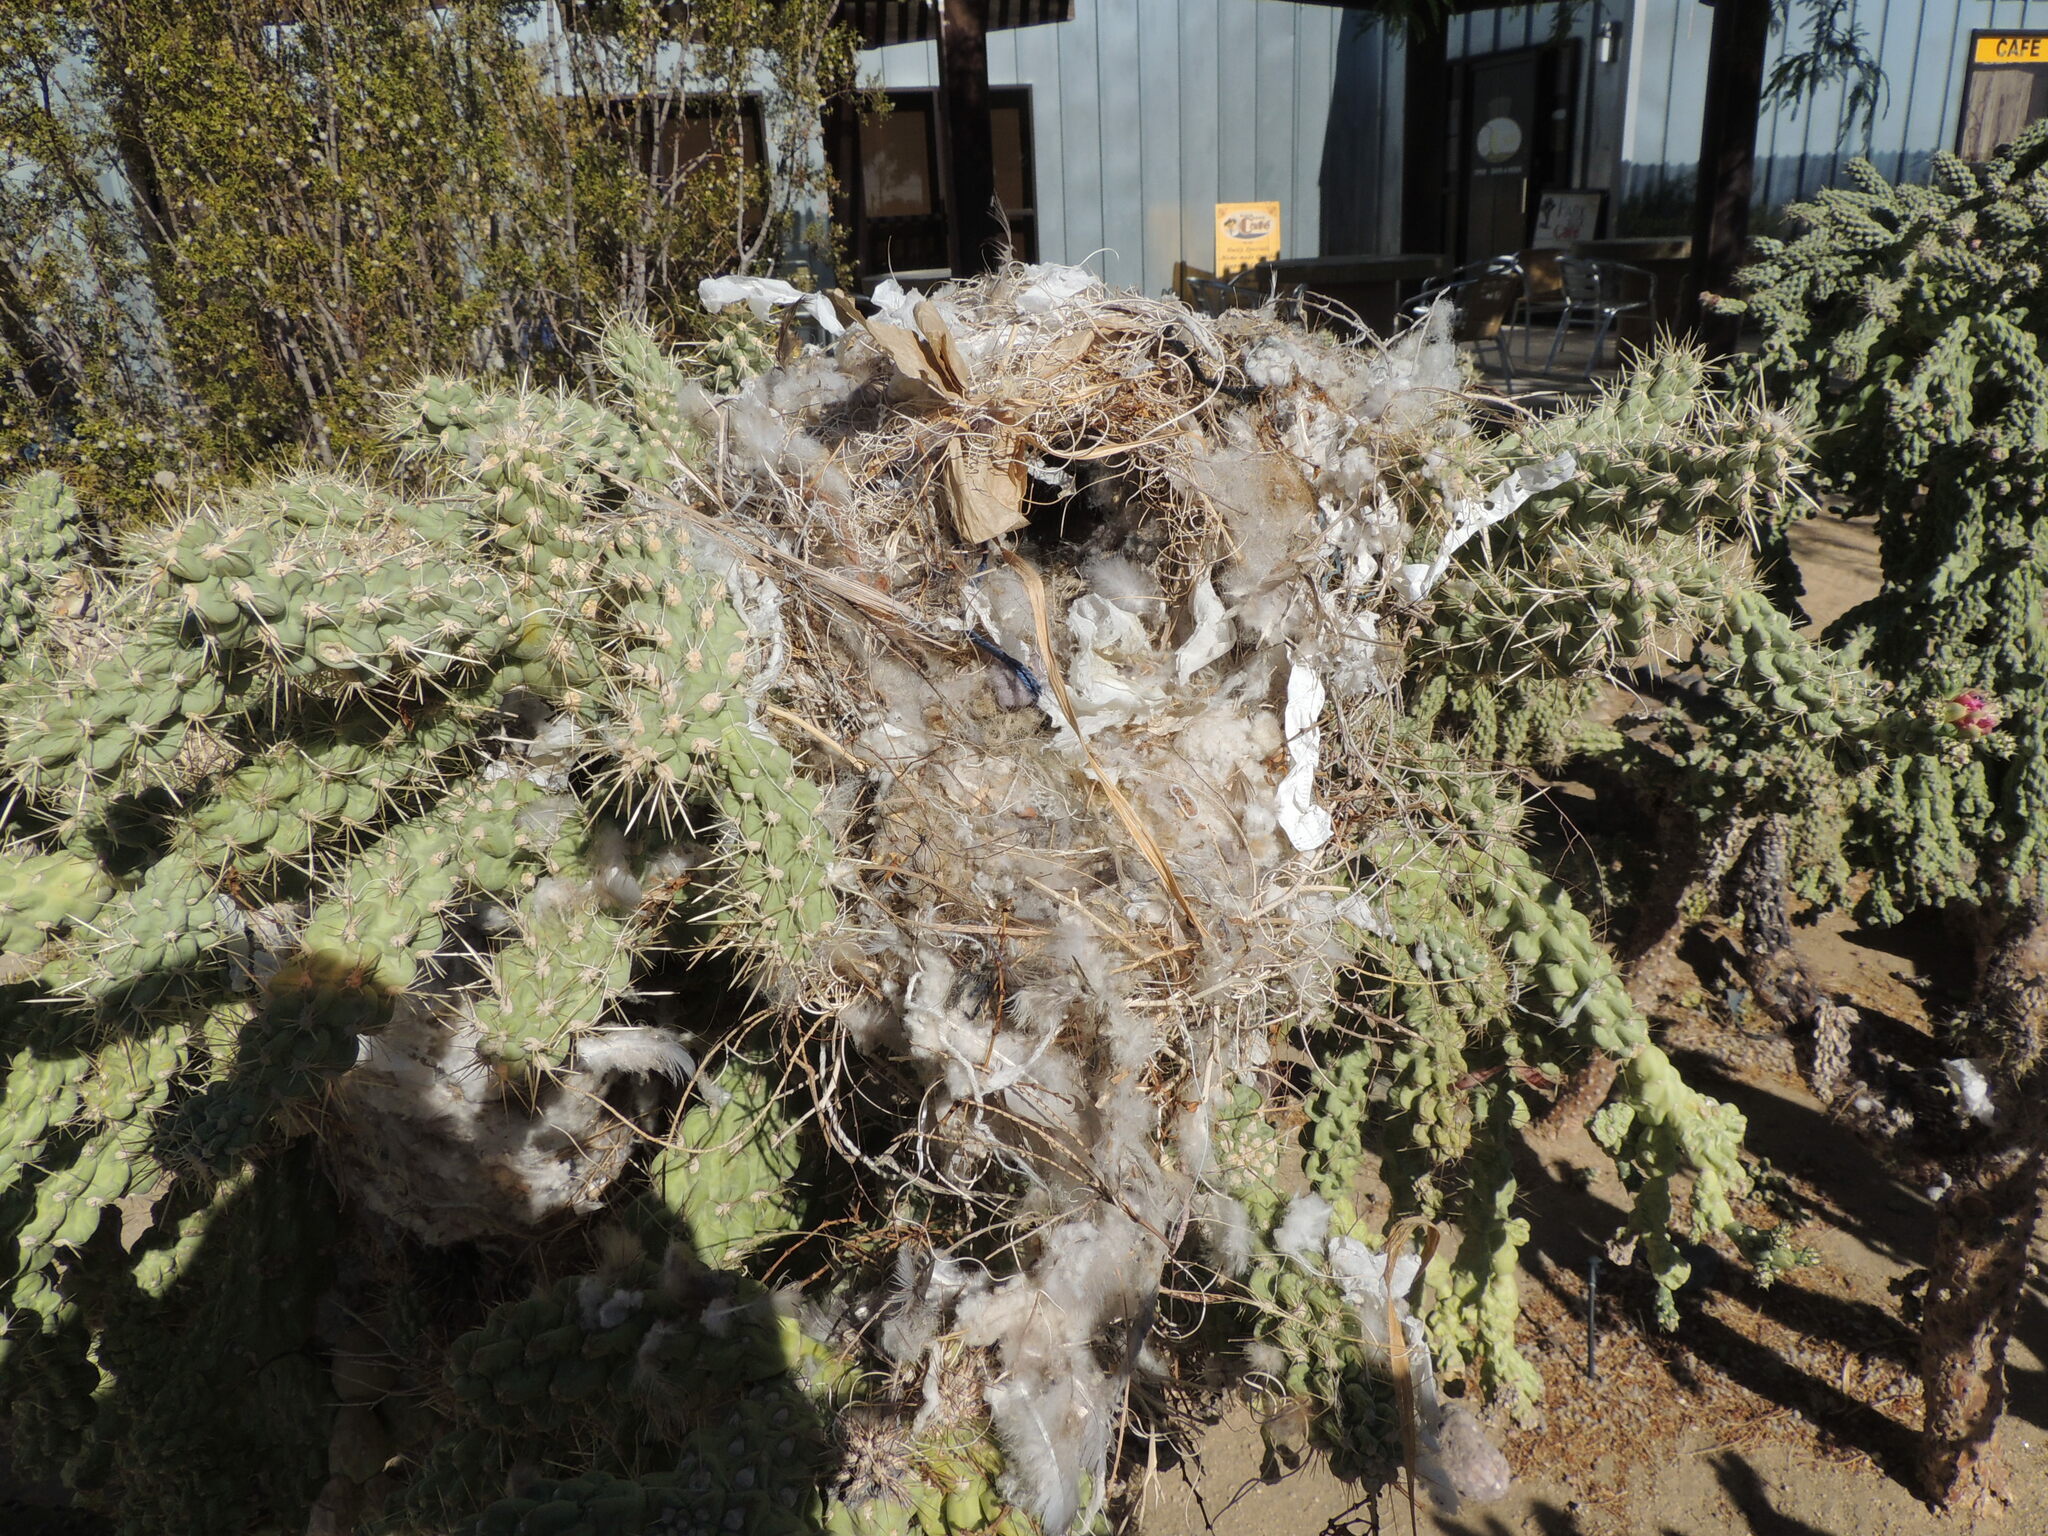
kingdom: Animalia
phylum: Chordata
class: Aves
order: Passeriformes
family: Troglodytidae
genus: Campylorhynchus
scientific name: Campylorhynchus brunneicapillus
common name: Cactus wren
